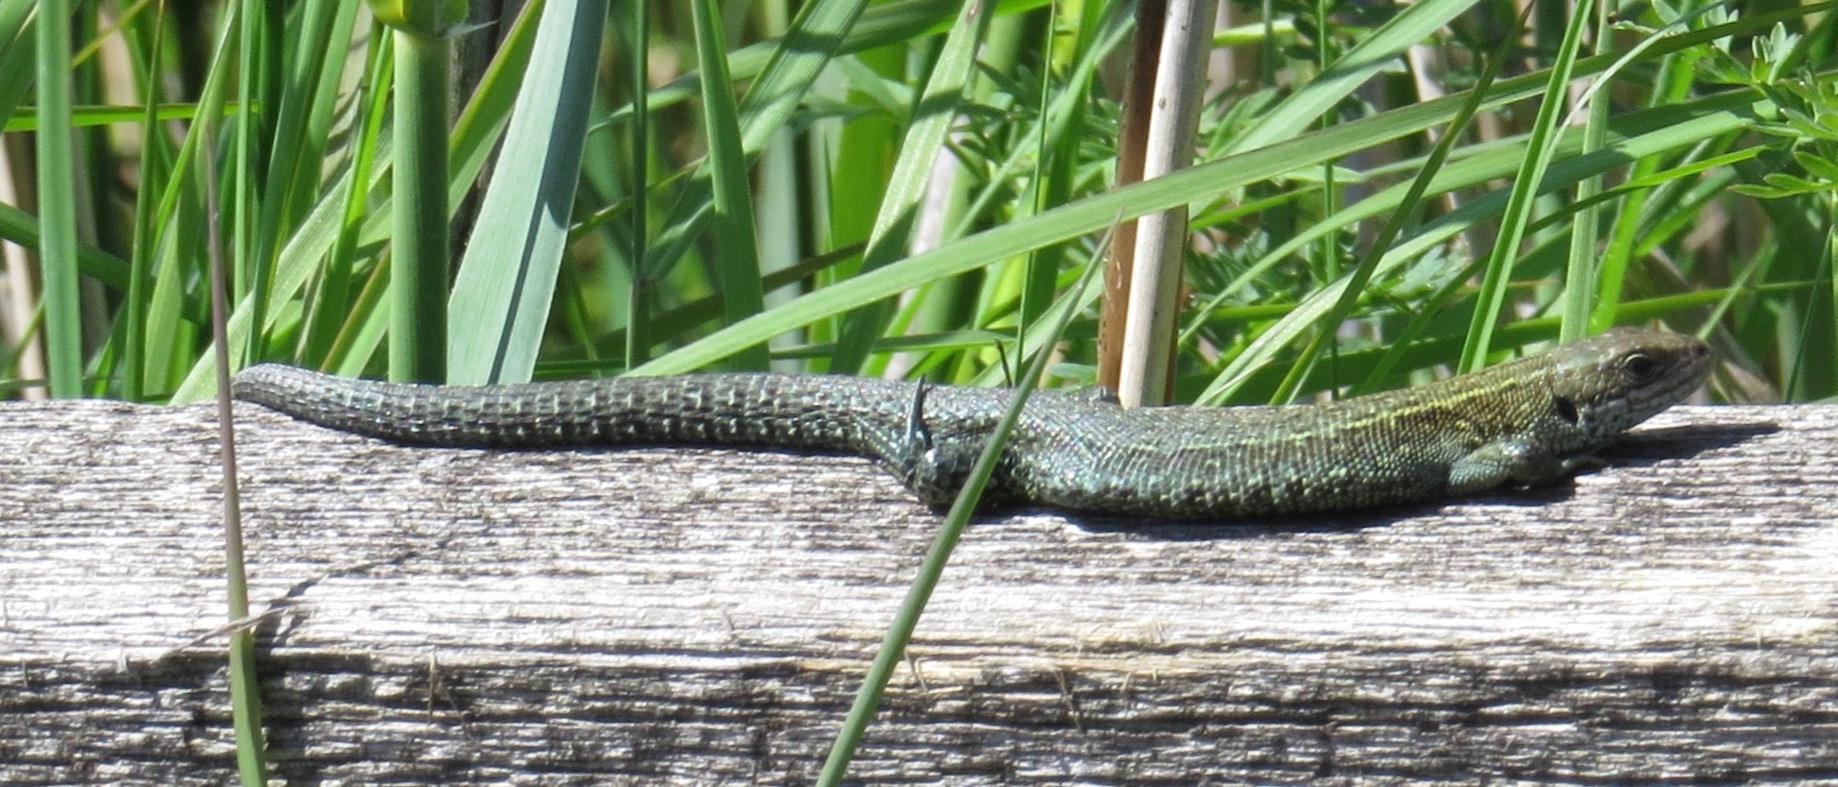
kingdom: Animalia
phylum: Chordata
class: Squamata
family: Lacertidae
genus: Zootoca
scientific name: Zootoca vivipara
